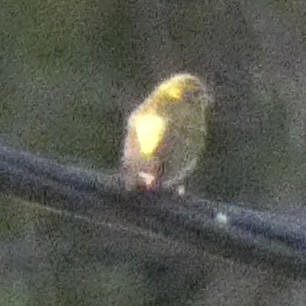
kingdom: Animalia
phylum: Chordata
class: Aves
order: Passeriformes
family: Fringillidae
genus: Serinus
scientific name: Serinus serinus
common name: European serin
